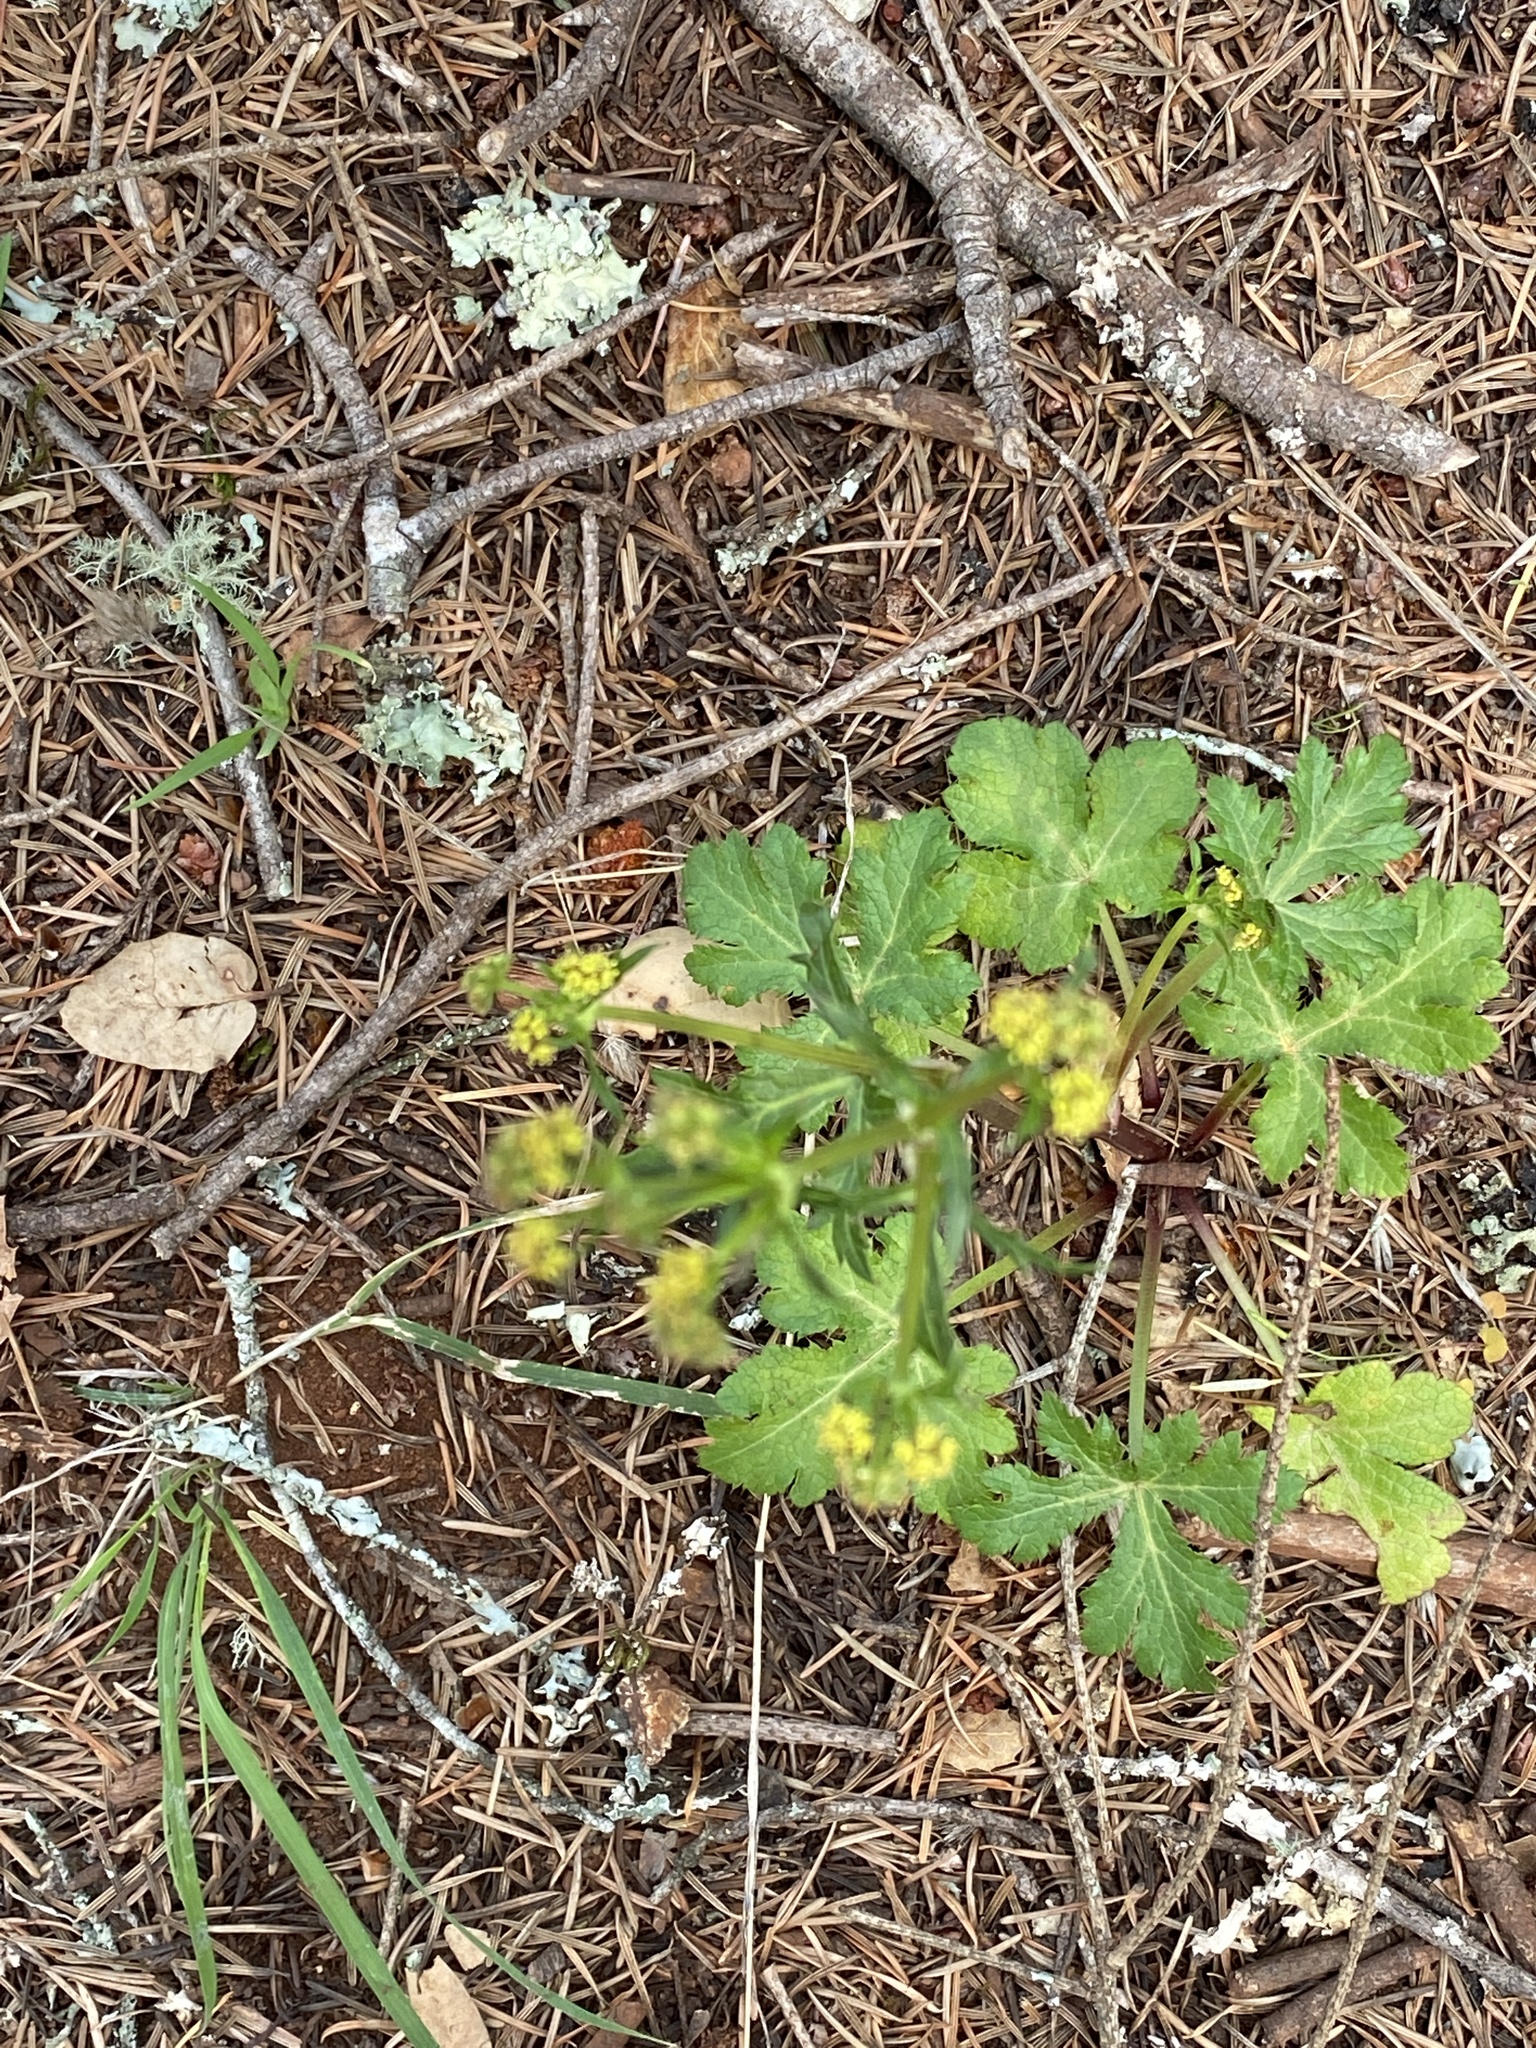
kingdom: Plantae
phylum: Tracheophyta
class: Magnoliopsida
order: Apiales
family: Apiaceae
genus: Sanicula
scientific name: Sanicula crassicaulis
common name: Western snakeroot
